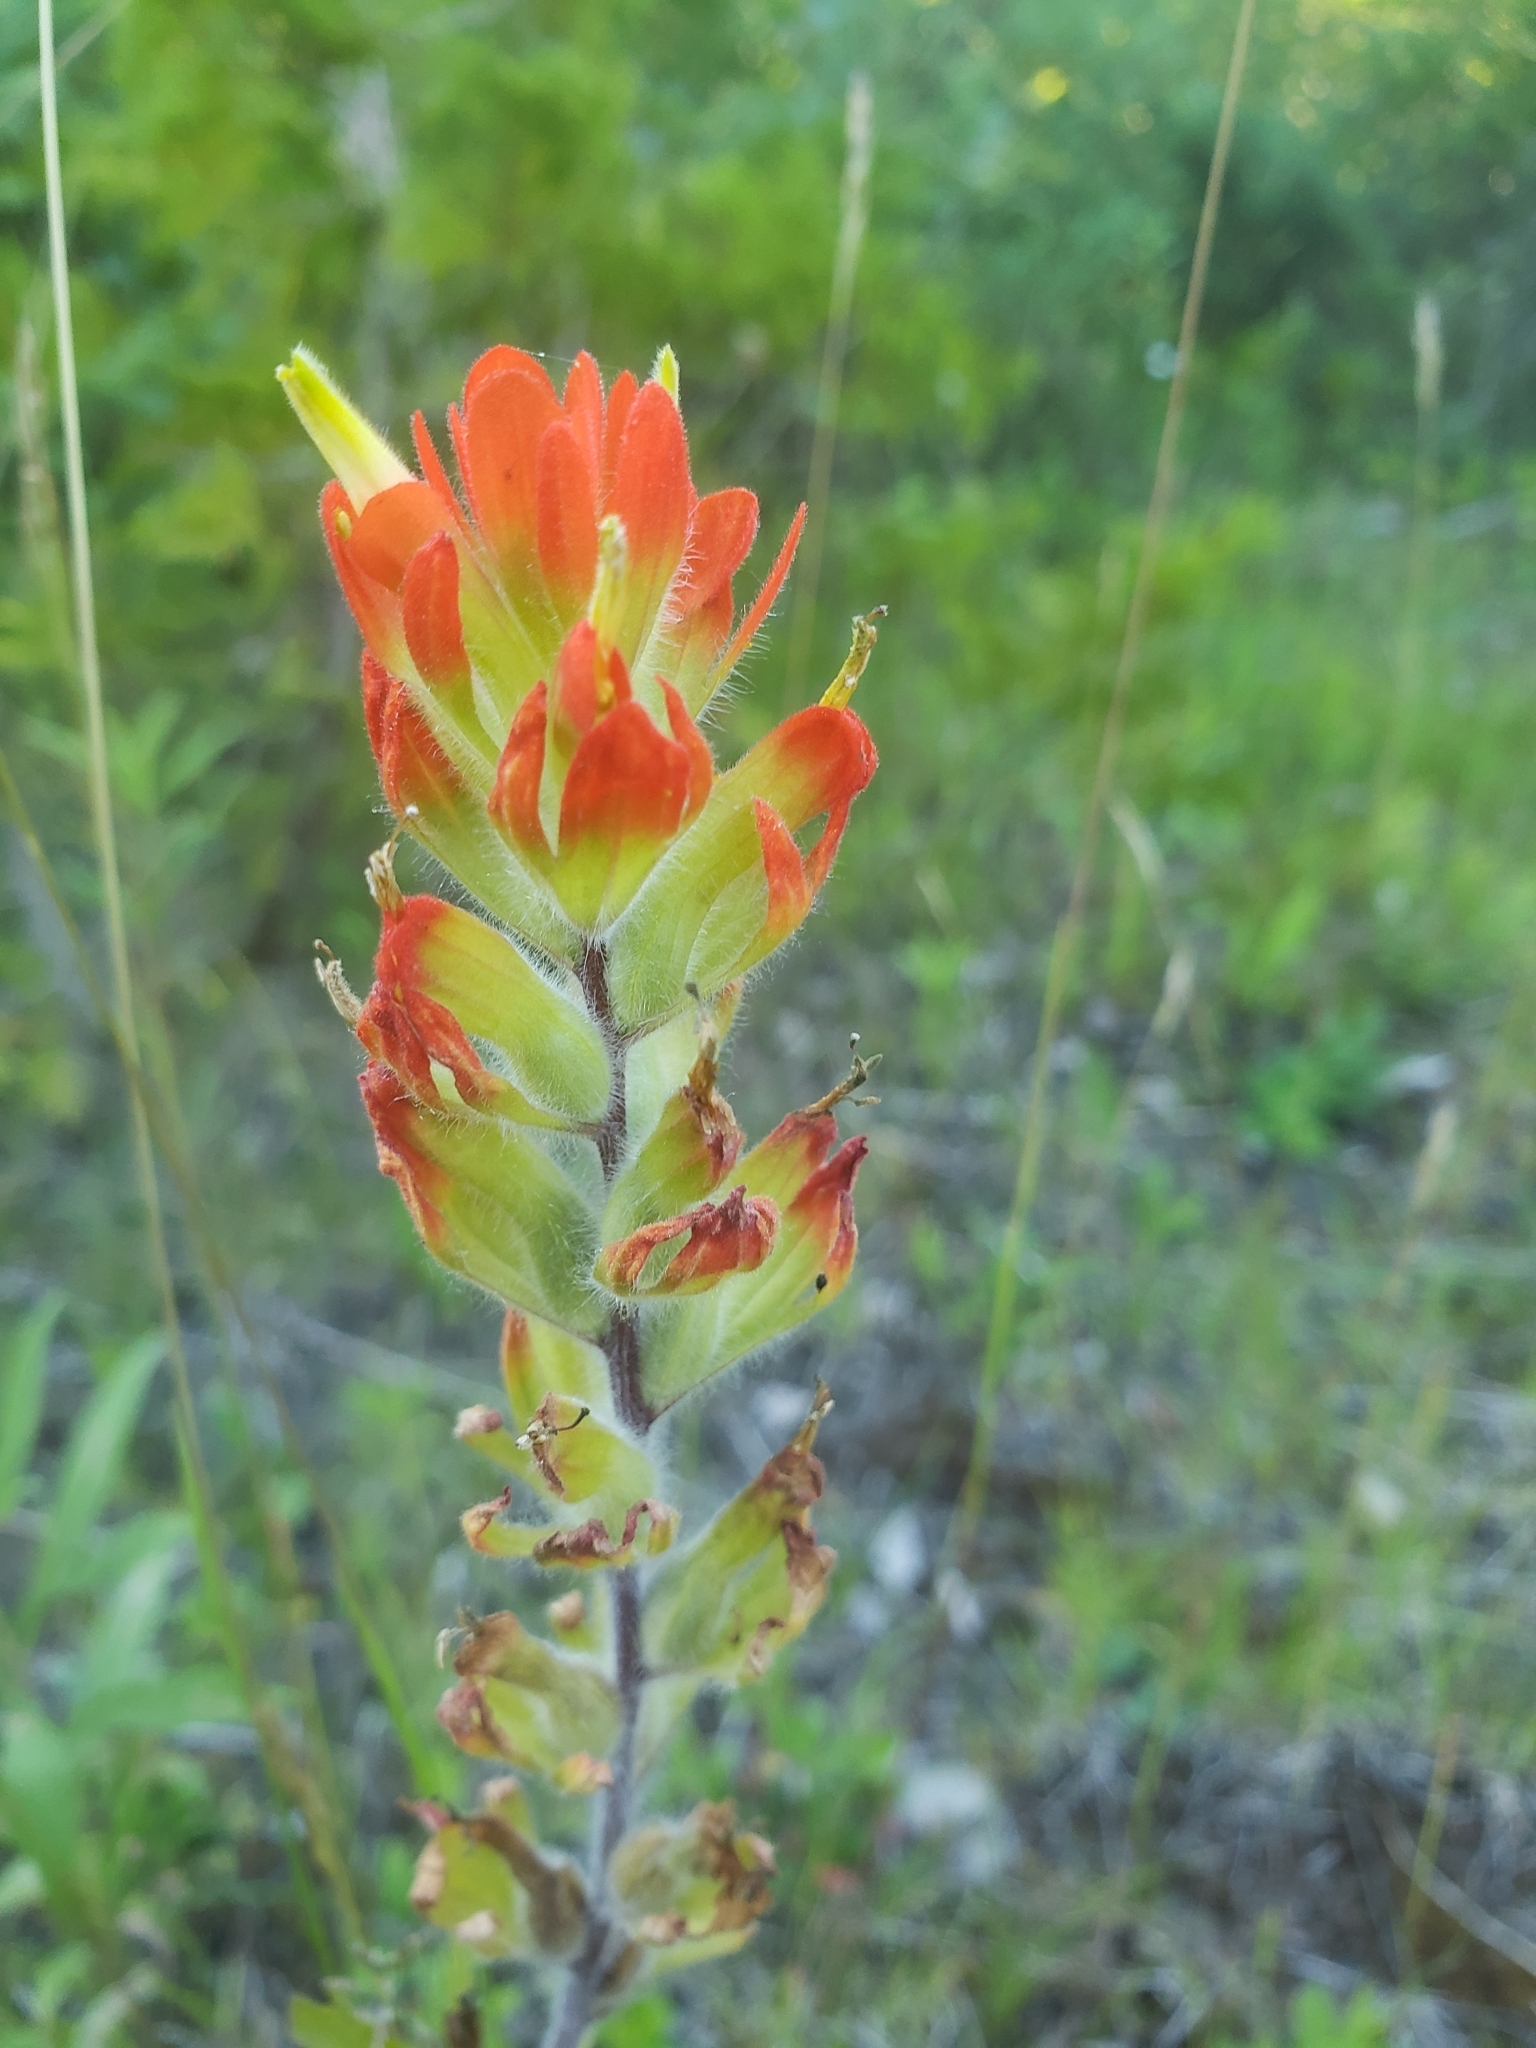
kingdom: Plantae
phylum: Tracheophyta
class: Magnoliopsida
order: Lamiales
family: Orobanchaceae
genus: Castilleja
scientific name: Castilleja coccinea
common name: Scarlet paintbrush
